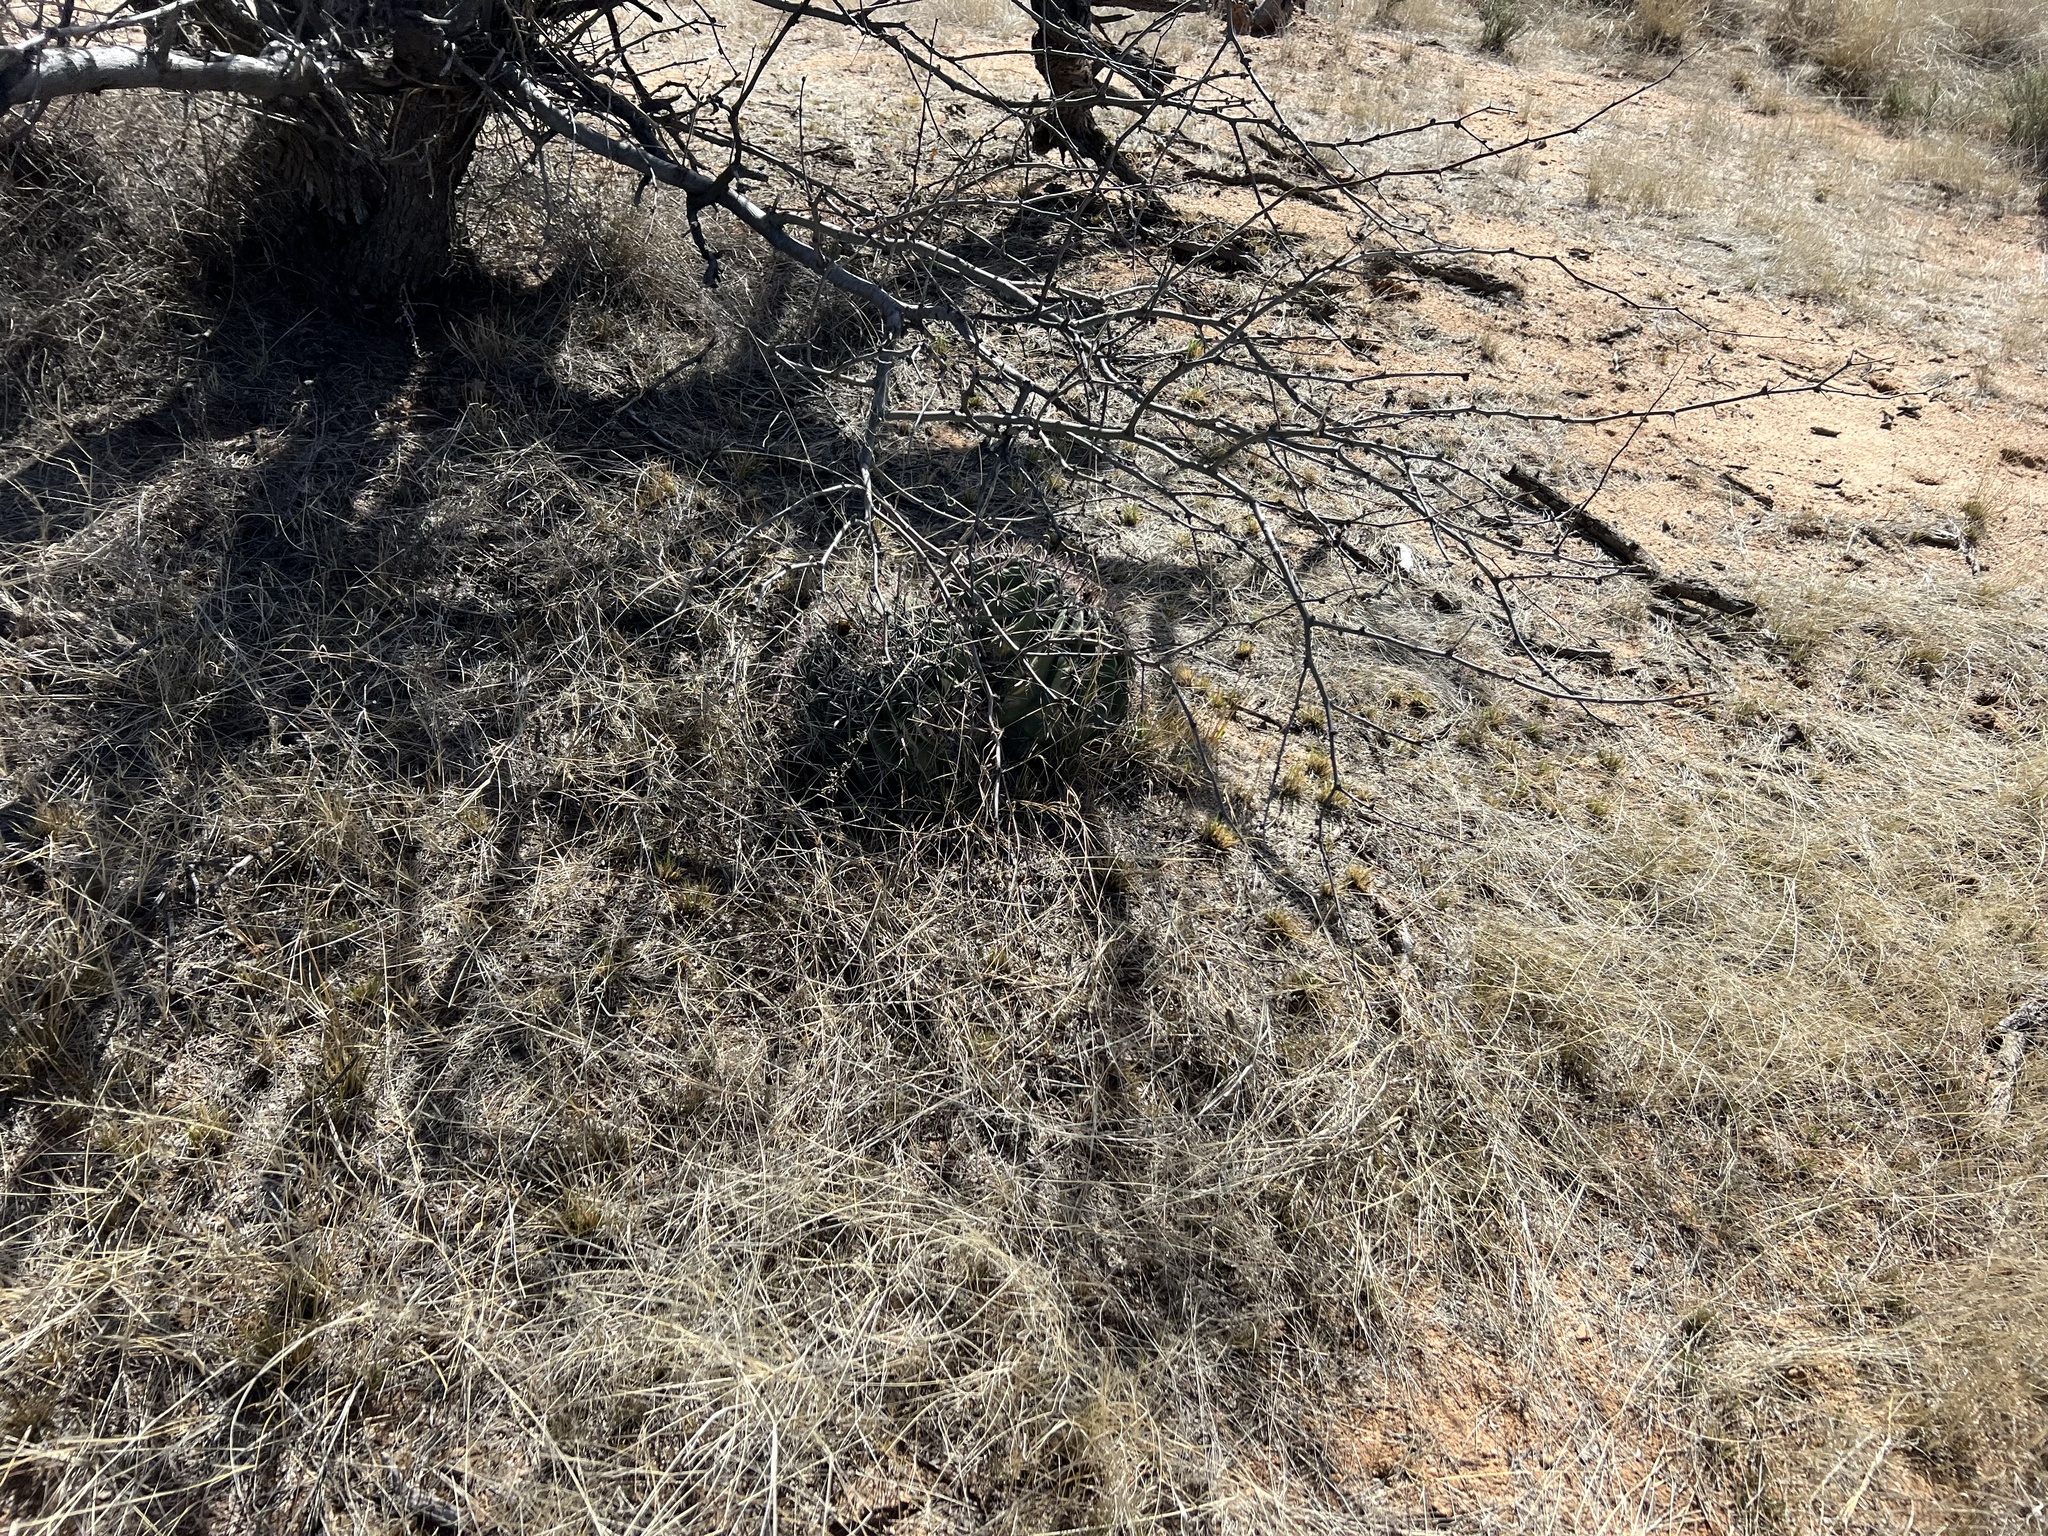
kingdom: Plantae
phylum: Tracheophyta
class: Magnoliopsida
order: Caryophyllales
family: Cactaceae
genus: Ferocactus
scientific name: Ferocactus wislizeni
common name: Candy barrel cactus
